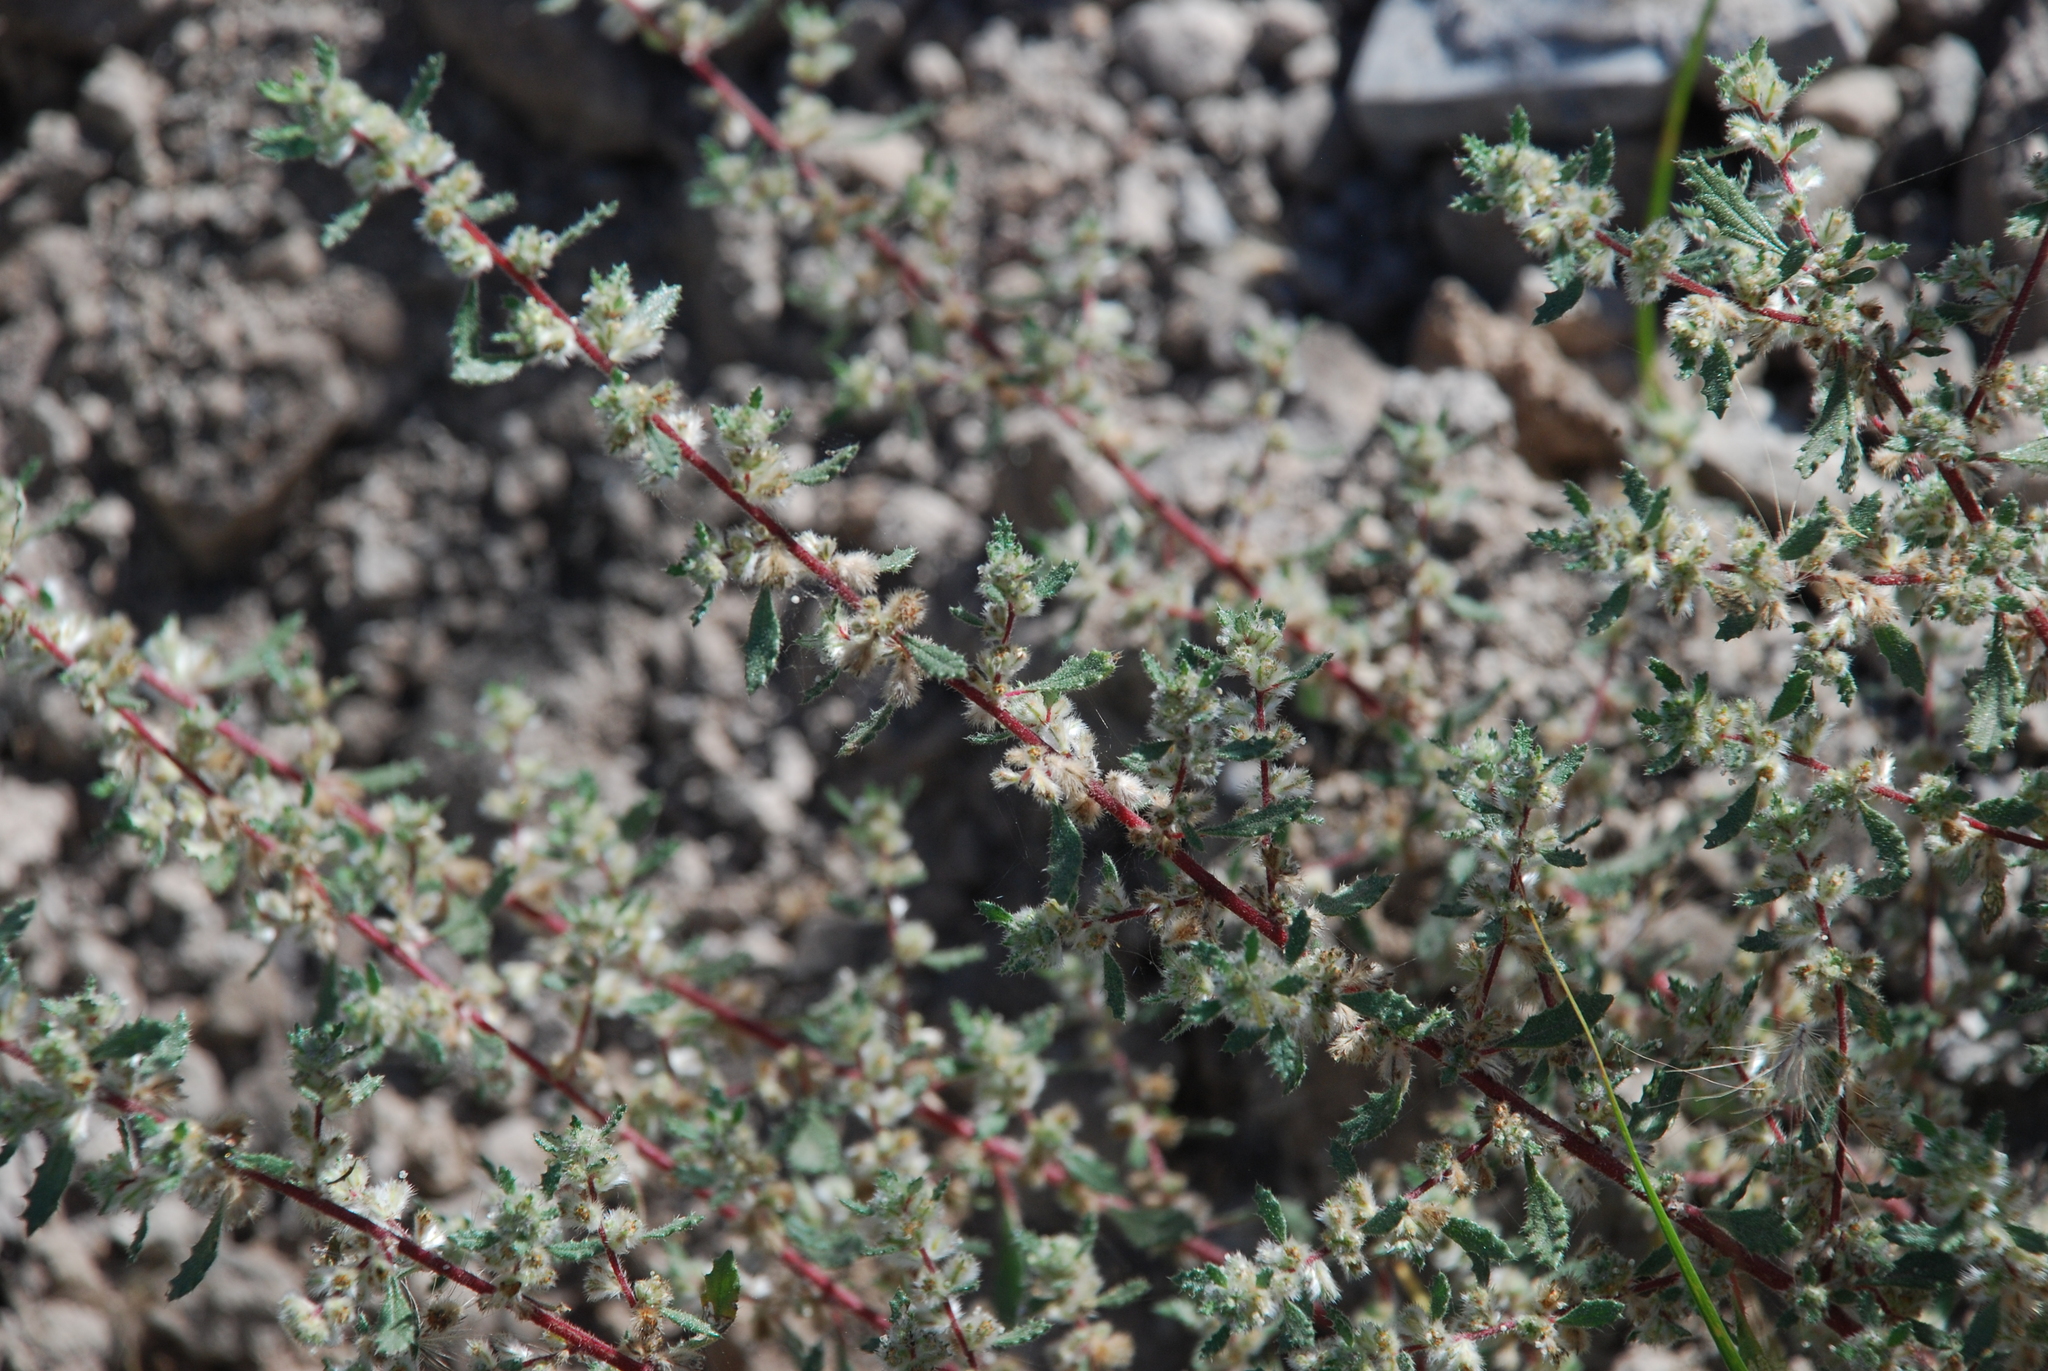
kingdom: Plantae
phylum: Tracheophyta
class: Magnoliopsida
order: Rosales
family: Urticaceae
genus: Forsskaolea
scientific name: Forsskaolea angustifolia
